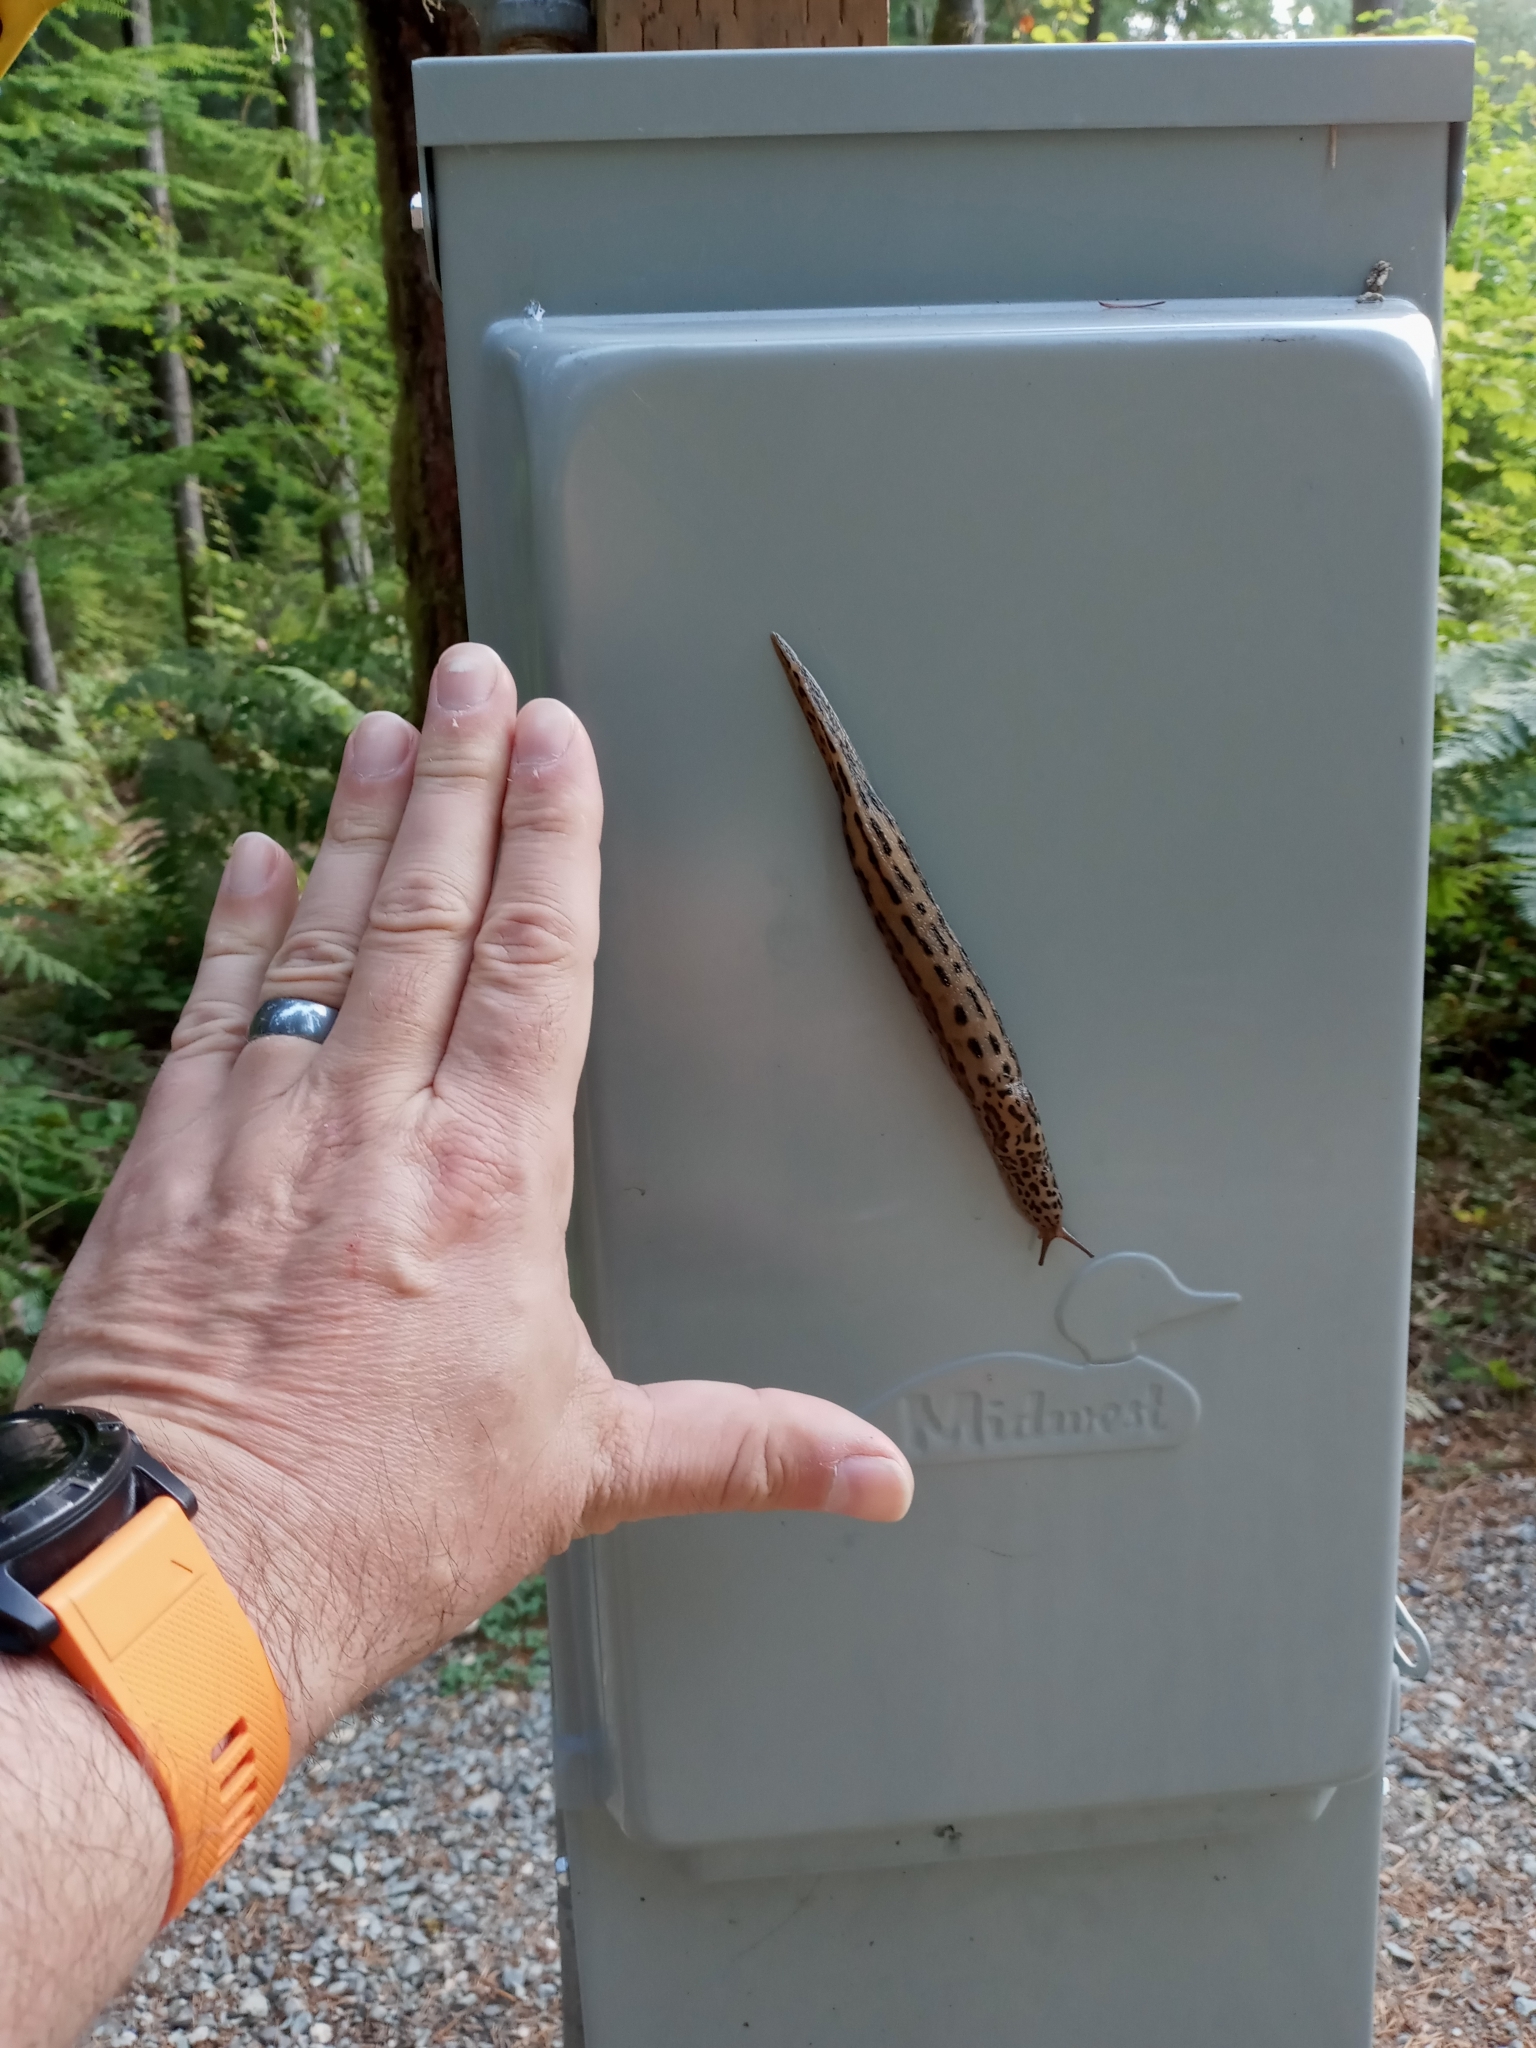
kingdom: Animalia
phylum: Mollusca
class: Gastropoda
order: Stylommatophora
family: Limacidae
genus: Limax
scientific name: Limax maximus
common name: Great grey slug
